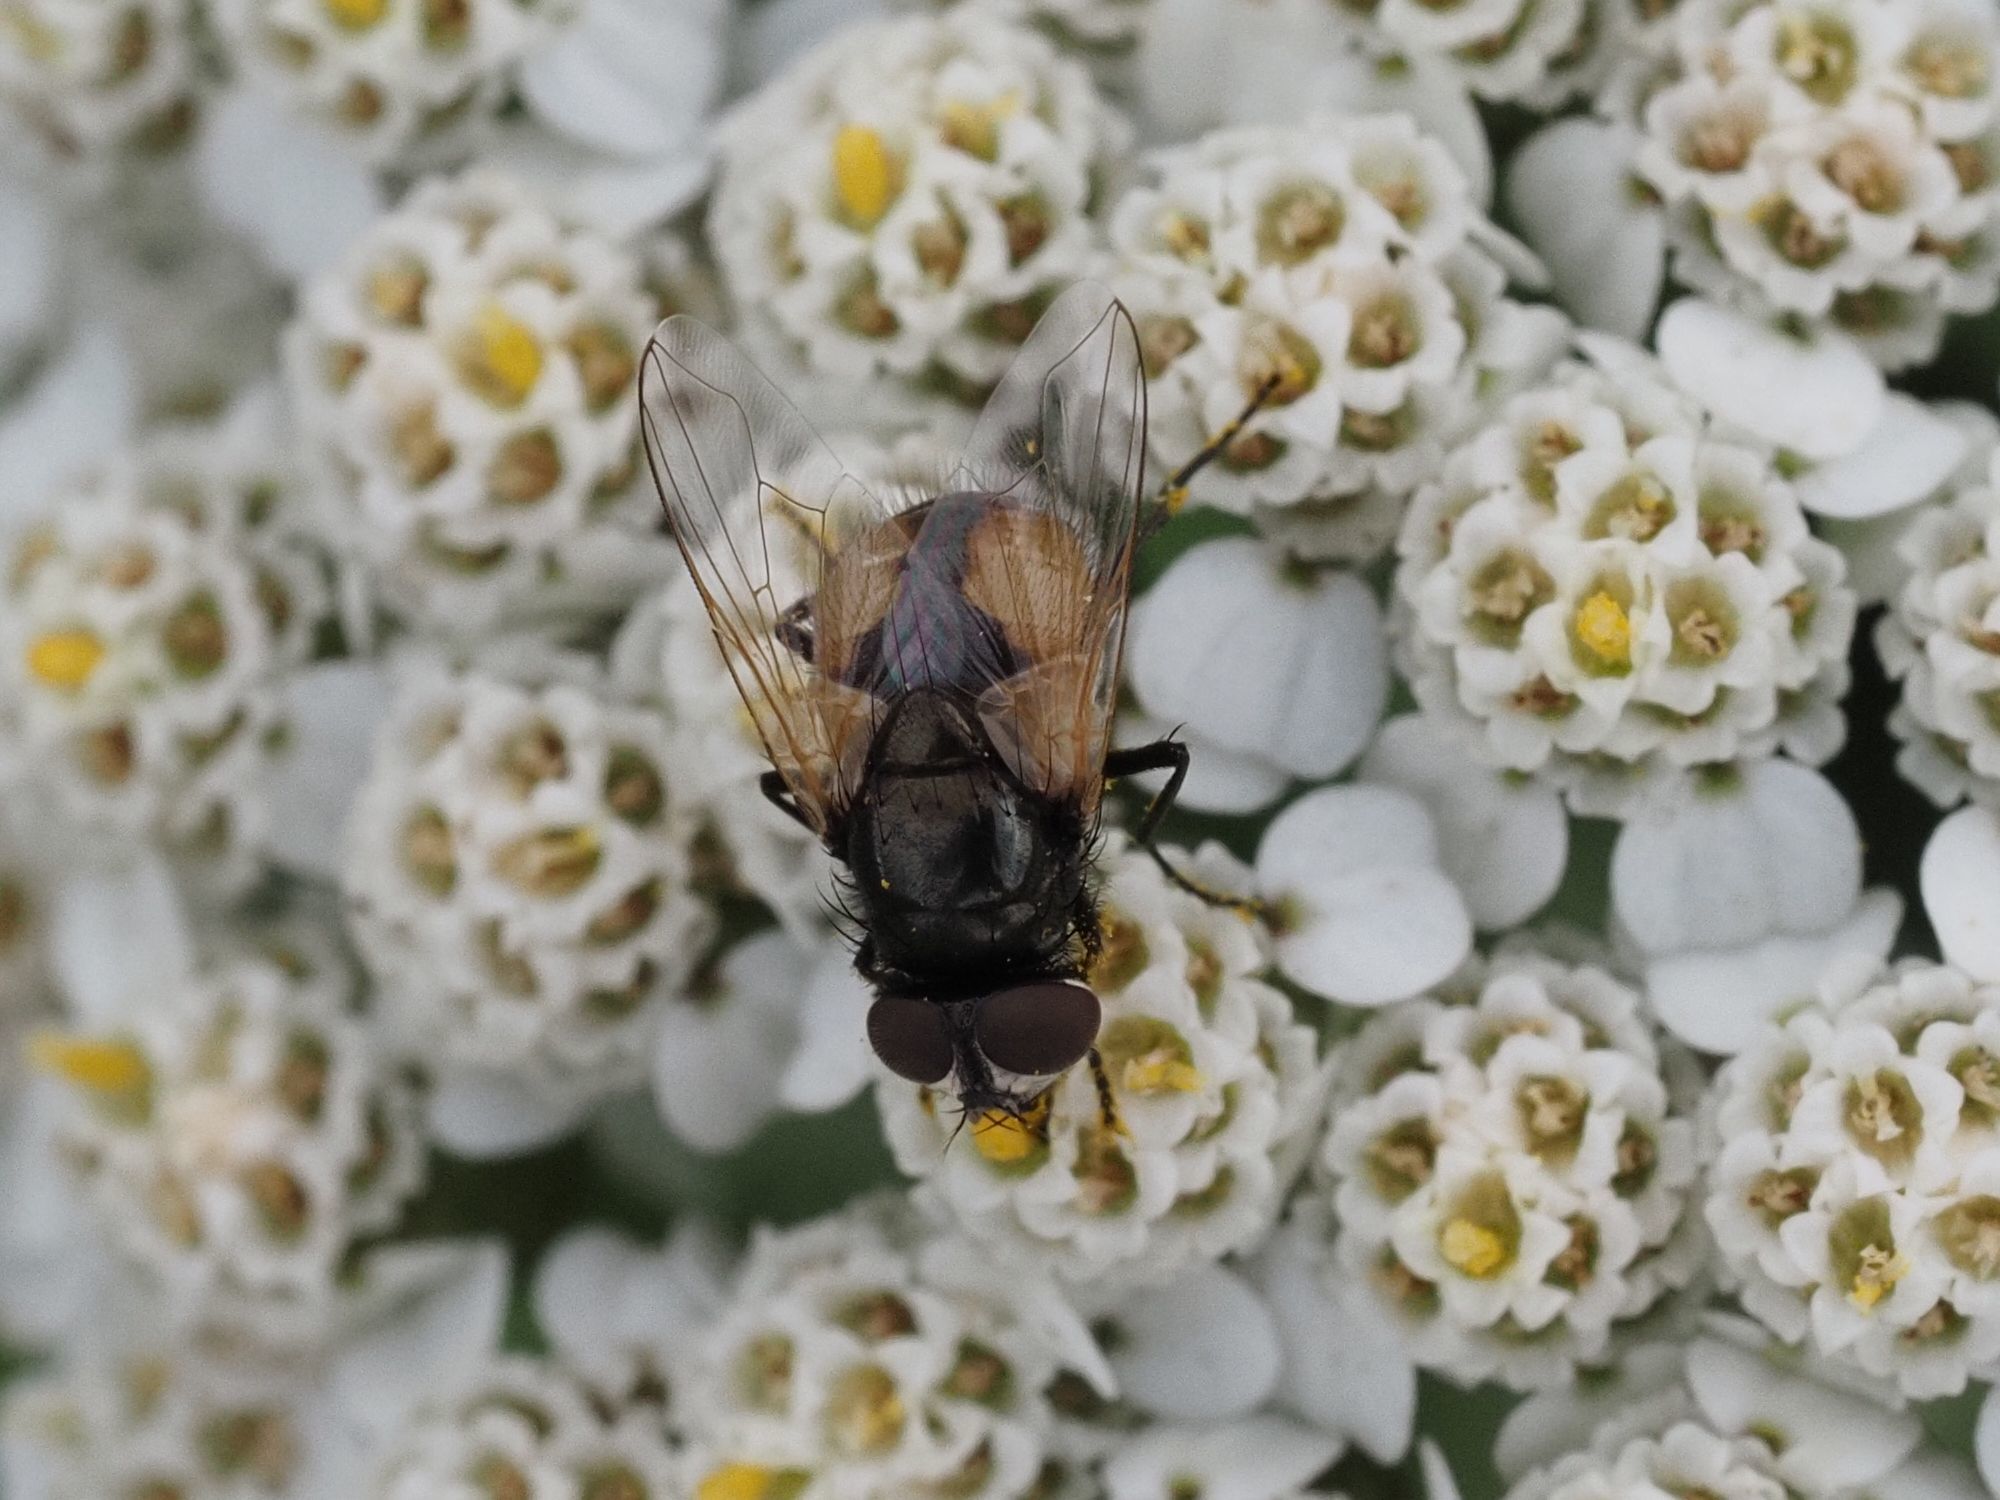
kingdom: Animalia
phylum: Arthropoda
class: Insecta
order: Diptera
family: Muscidae
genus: Musca
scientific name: Musca osiris
